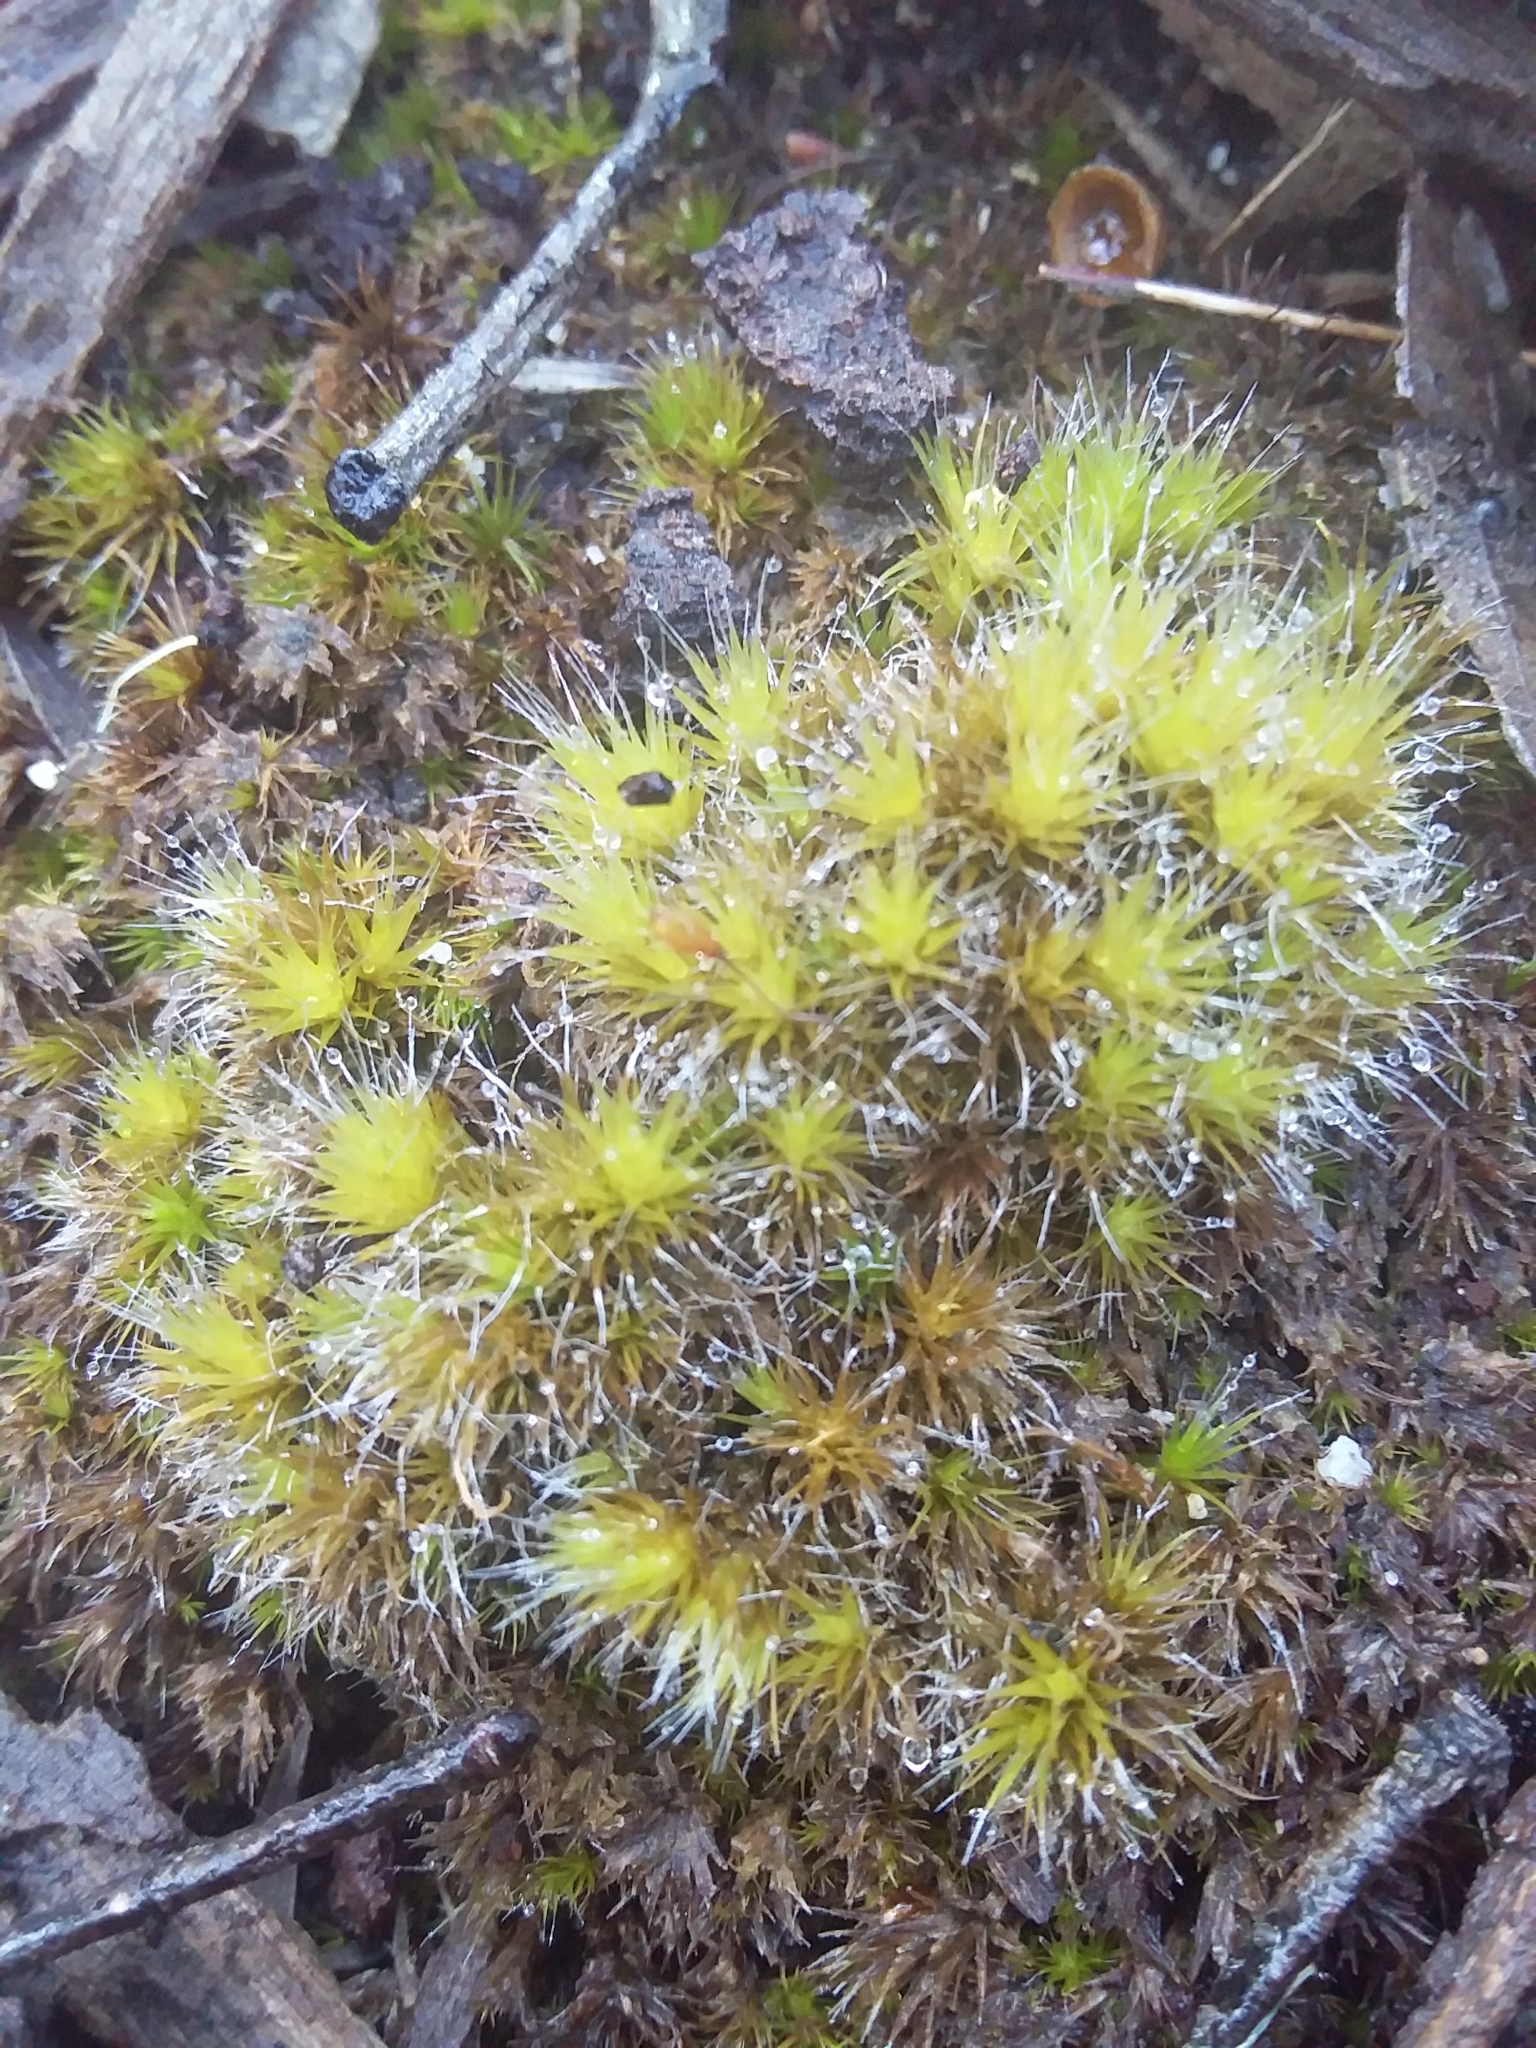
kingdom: Plantae
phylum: Bryophyta
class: Bryopsida
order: Dicranales
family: Leucobryaceae
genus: Campylopus
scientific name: Campylopus introflexus
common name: Heath star moss
